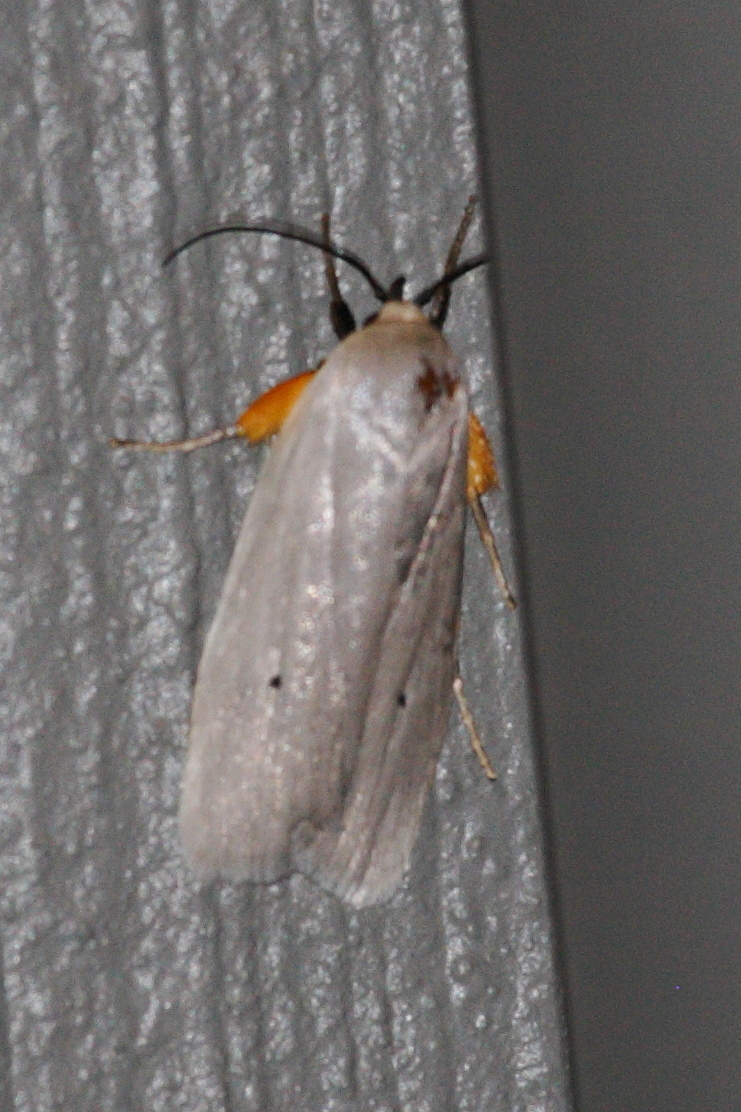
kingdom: Animalia
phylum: Arthropoda
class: Insecta
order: Lepidoptera
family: Xyloryctidae
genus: Maroga
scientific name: Maroga melanostigma
